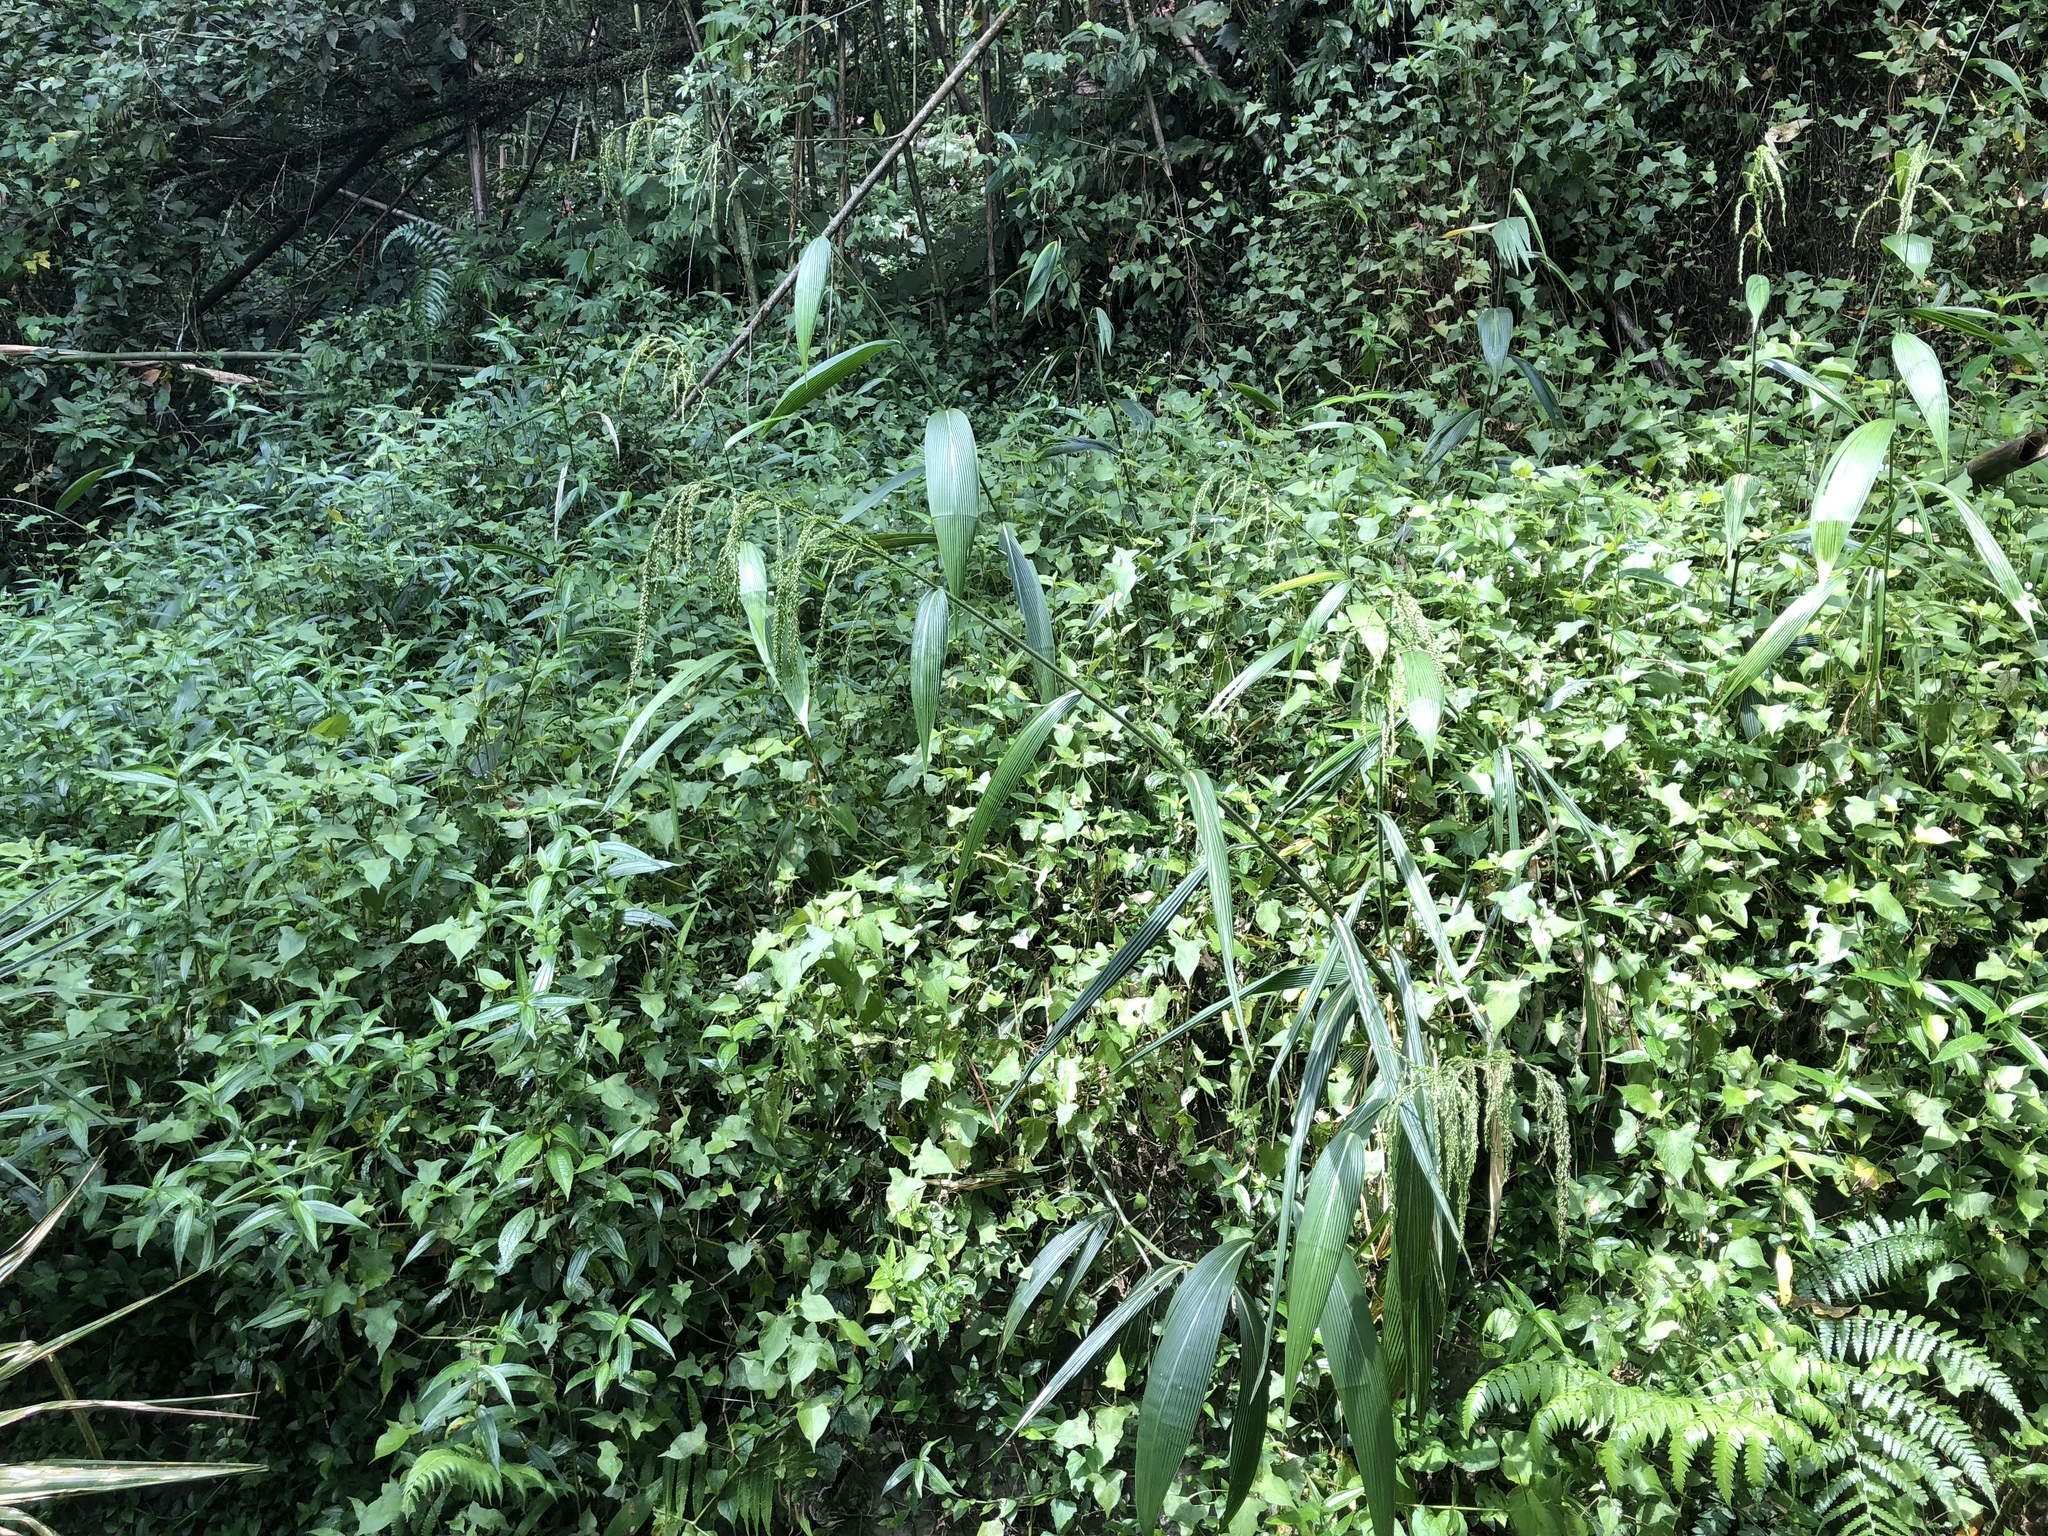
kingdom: Plantae
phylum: Tracheophyta
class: Liliopsida
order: Poales
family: Poaceae
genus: Setaria
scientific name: Setaria palmifolia
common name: Broadleaved bristlegrass
